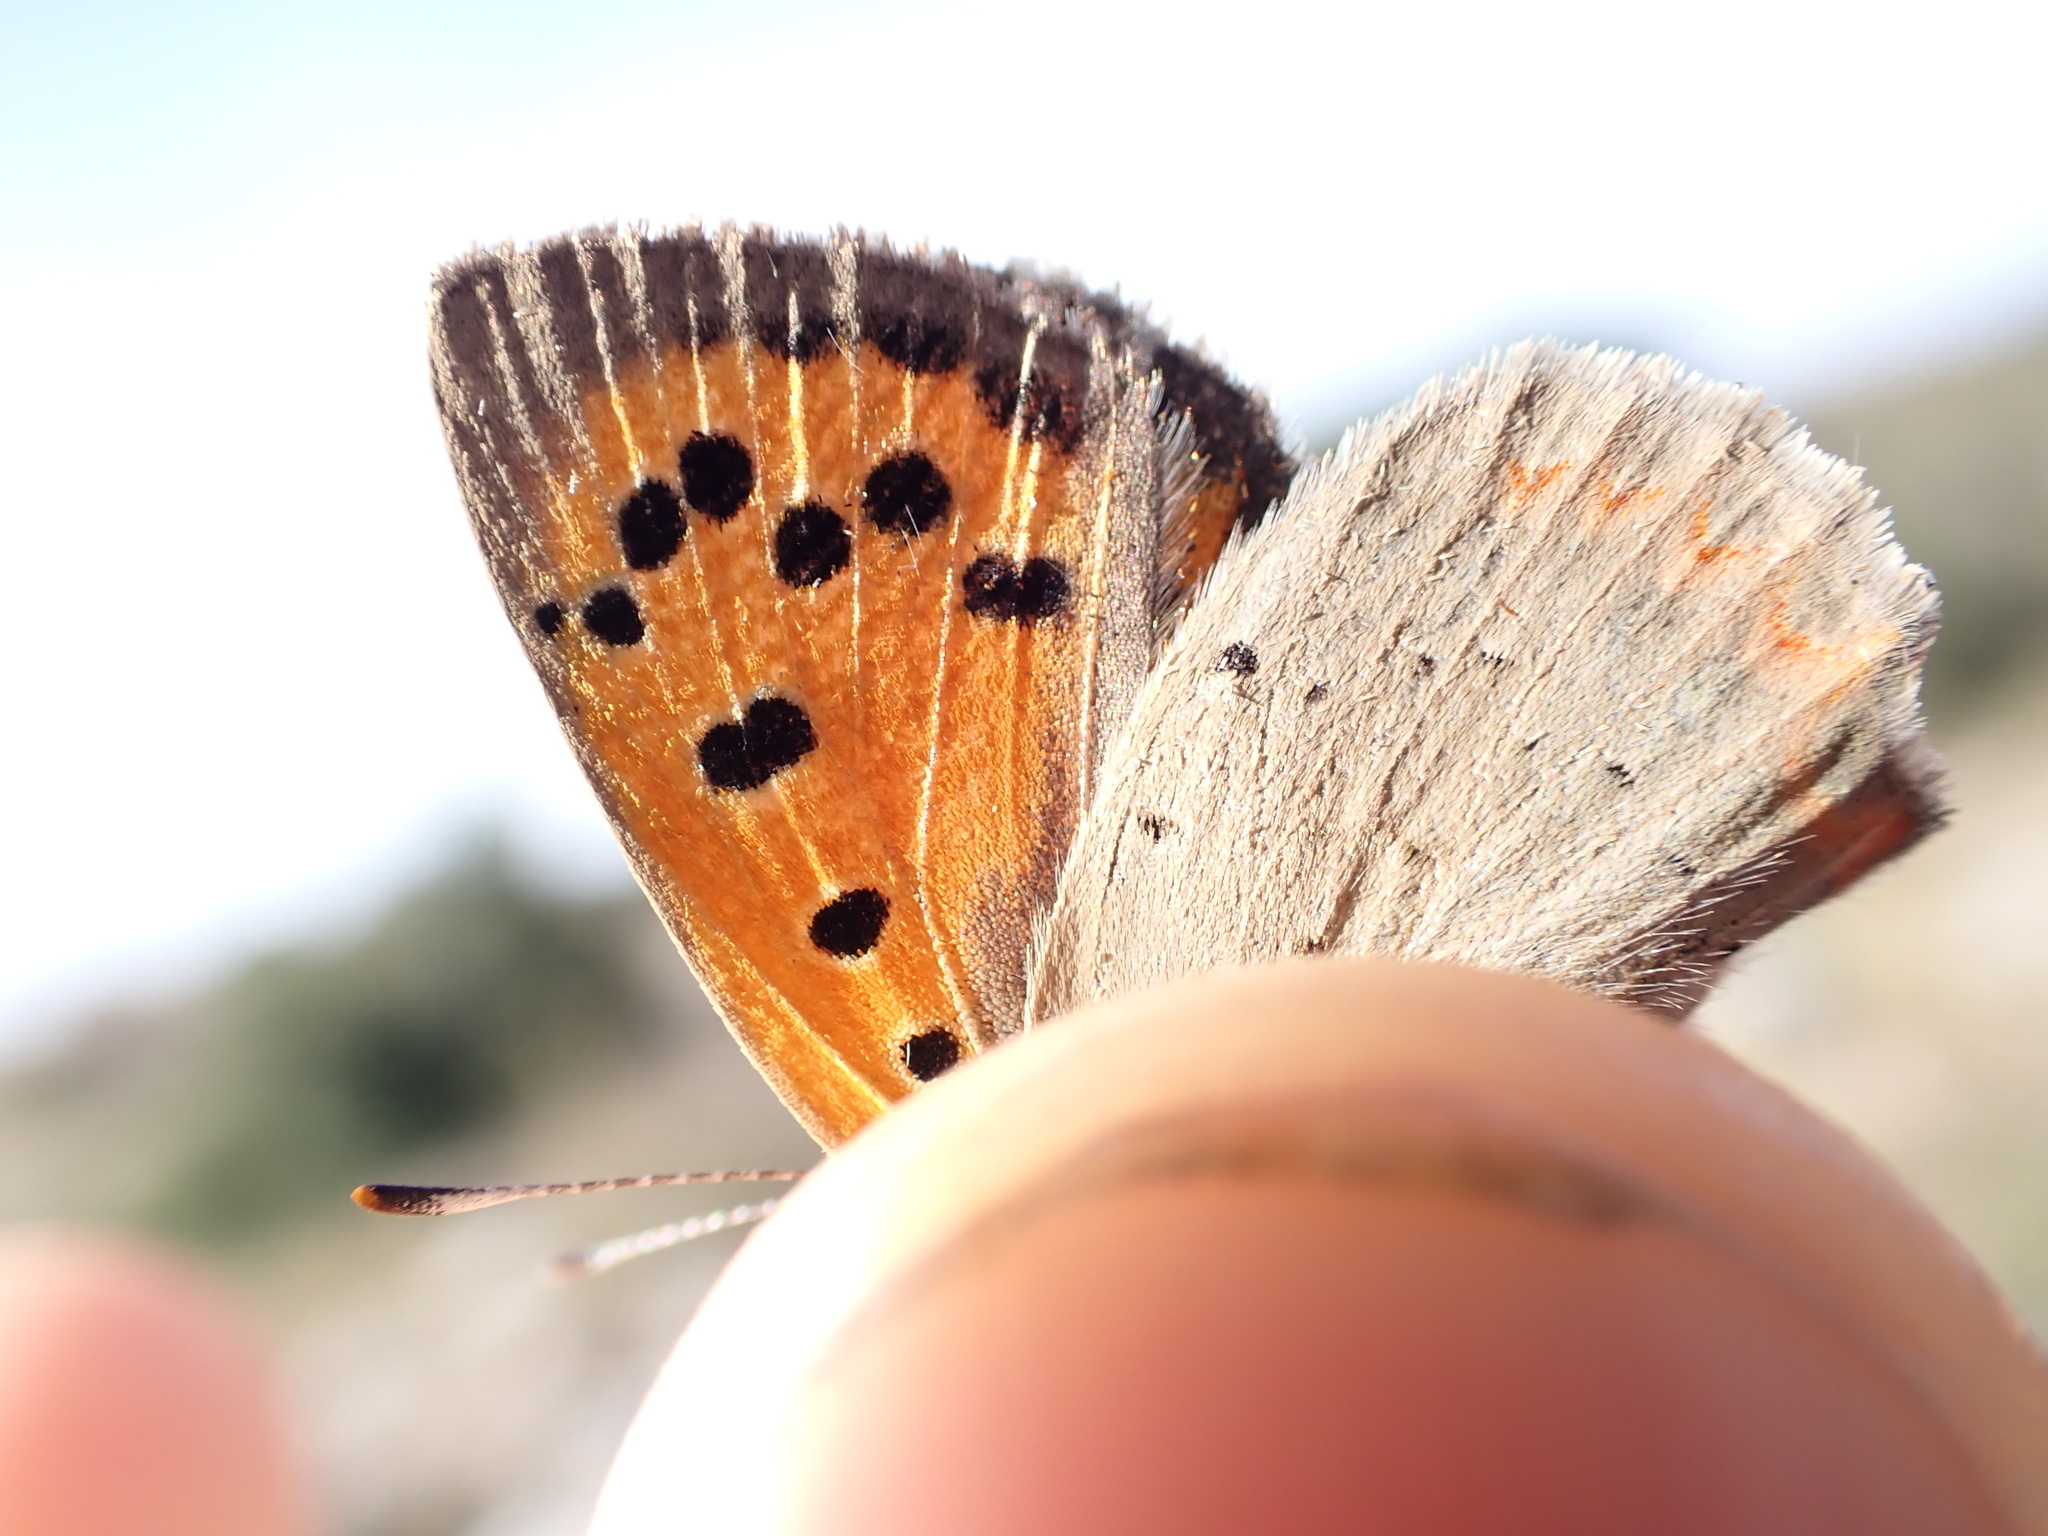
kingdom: Animalia
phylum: Arthropoda
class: Insecta
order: Lepidoptera
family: Lycaenidae
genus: Lycaena
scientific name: Lycaena phlaeas
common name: Small copper
